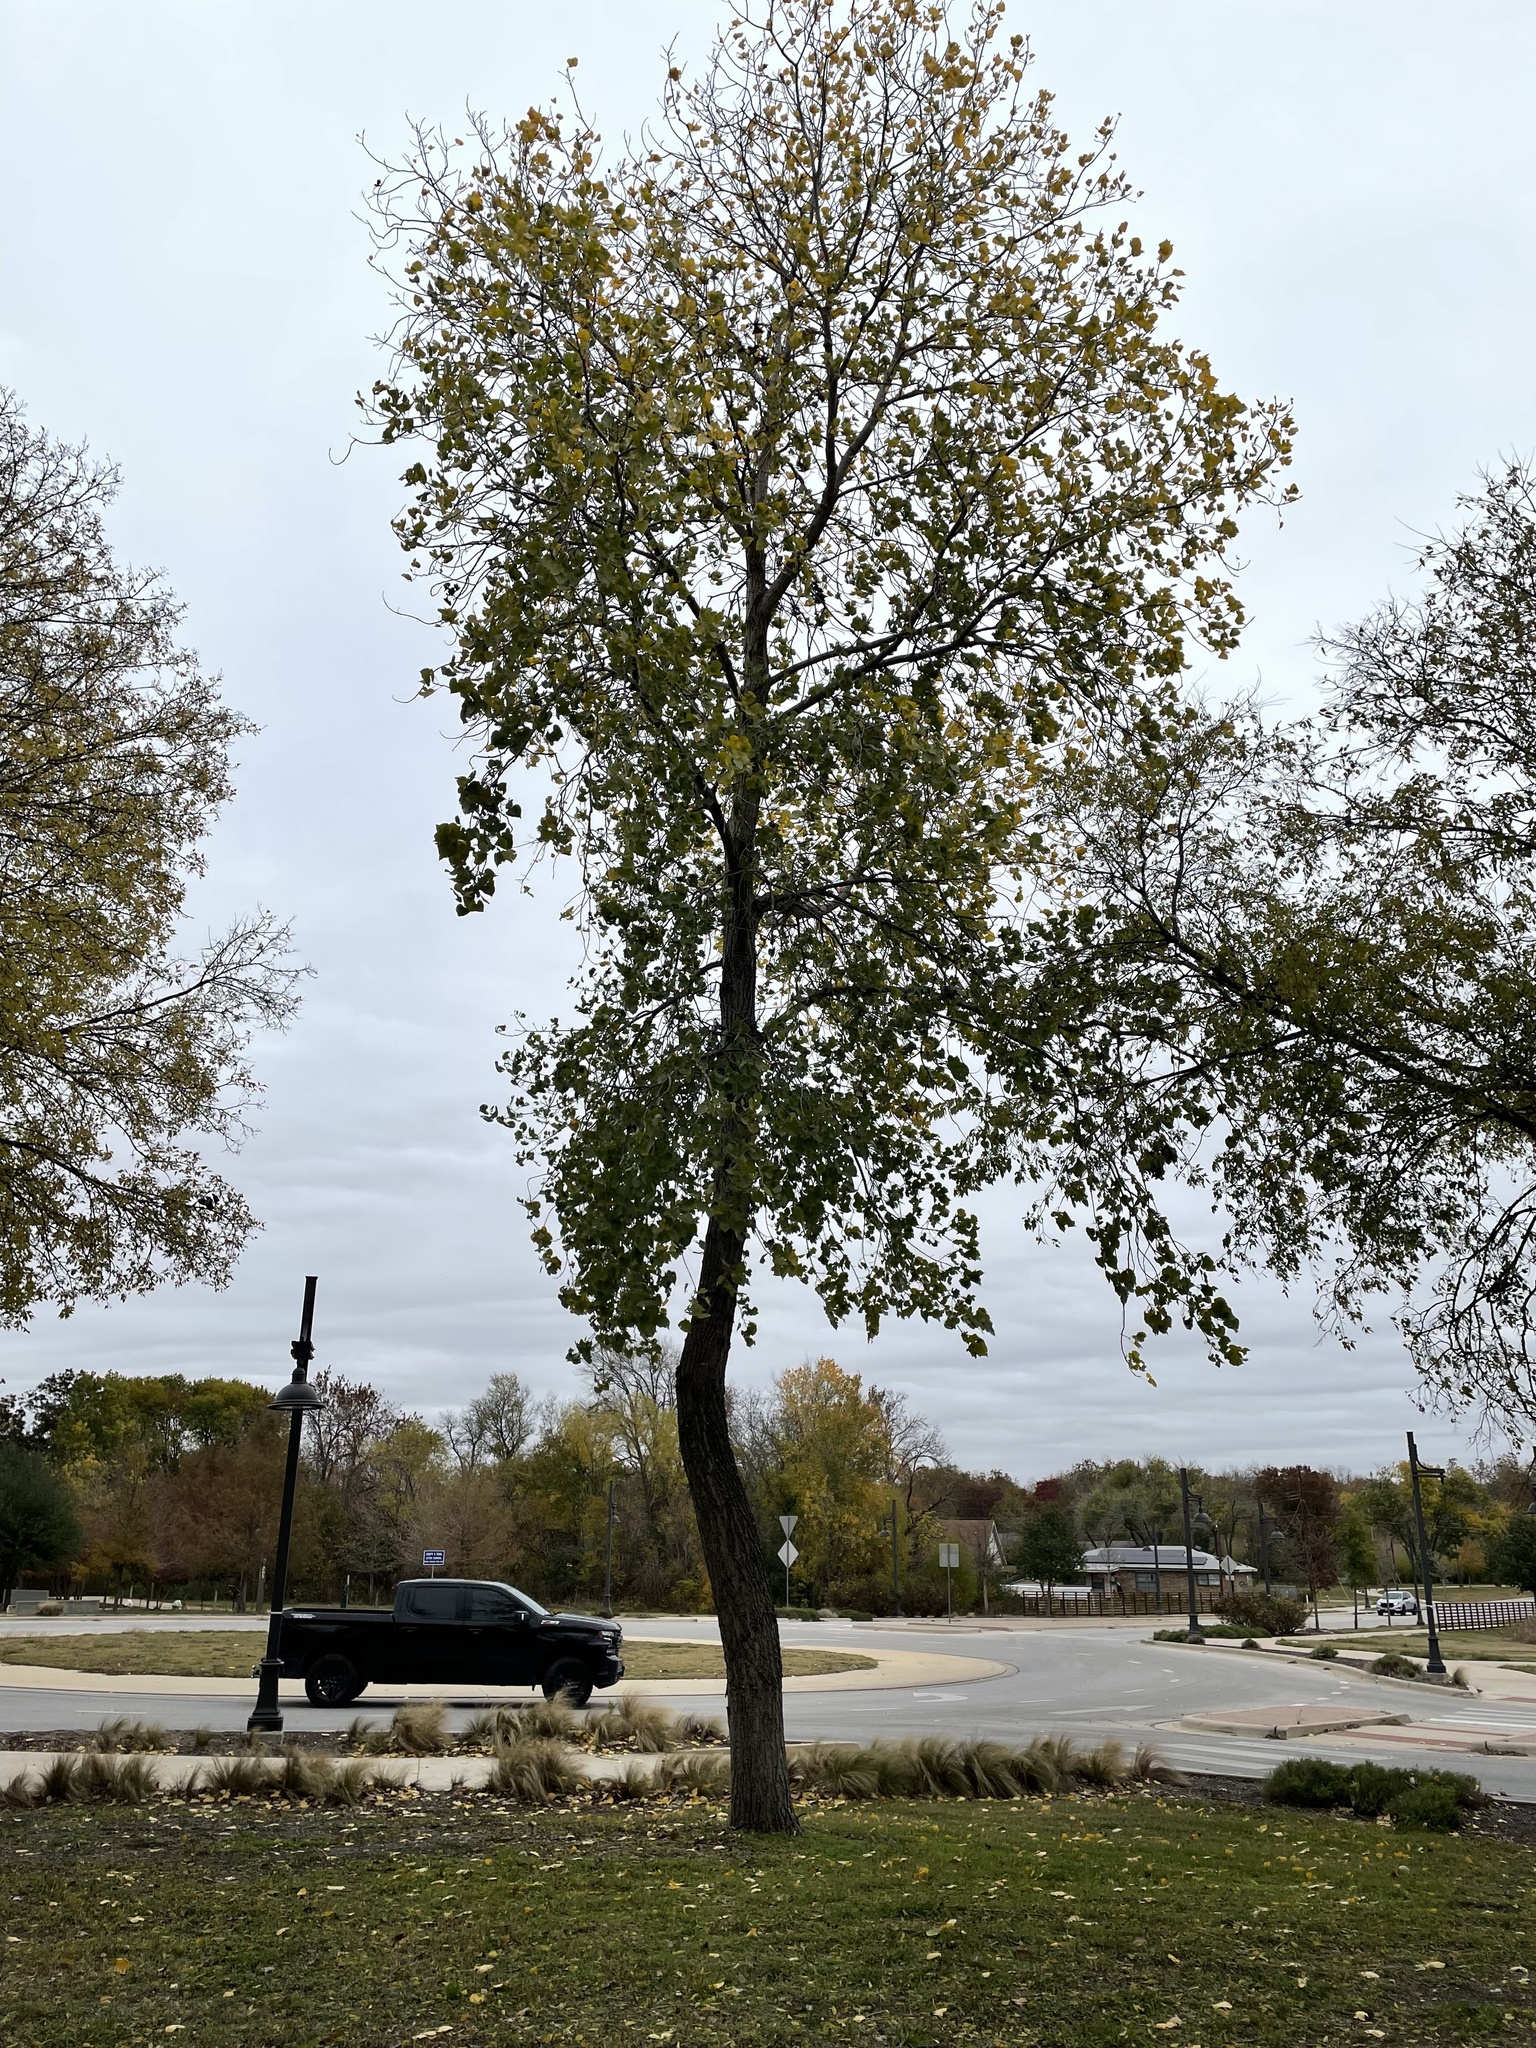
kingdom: Plantae
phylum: Tracheophyta
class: Magnoliopsida
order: Malpighiales
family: Salicaceae
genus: Populus
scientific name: Populus deltoides
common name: Eastern cottonwood
